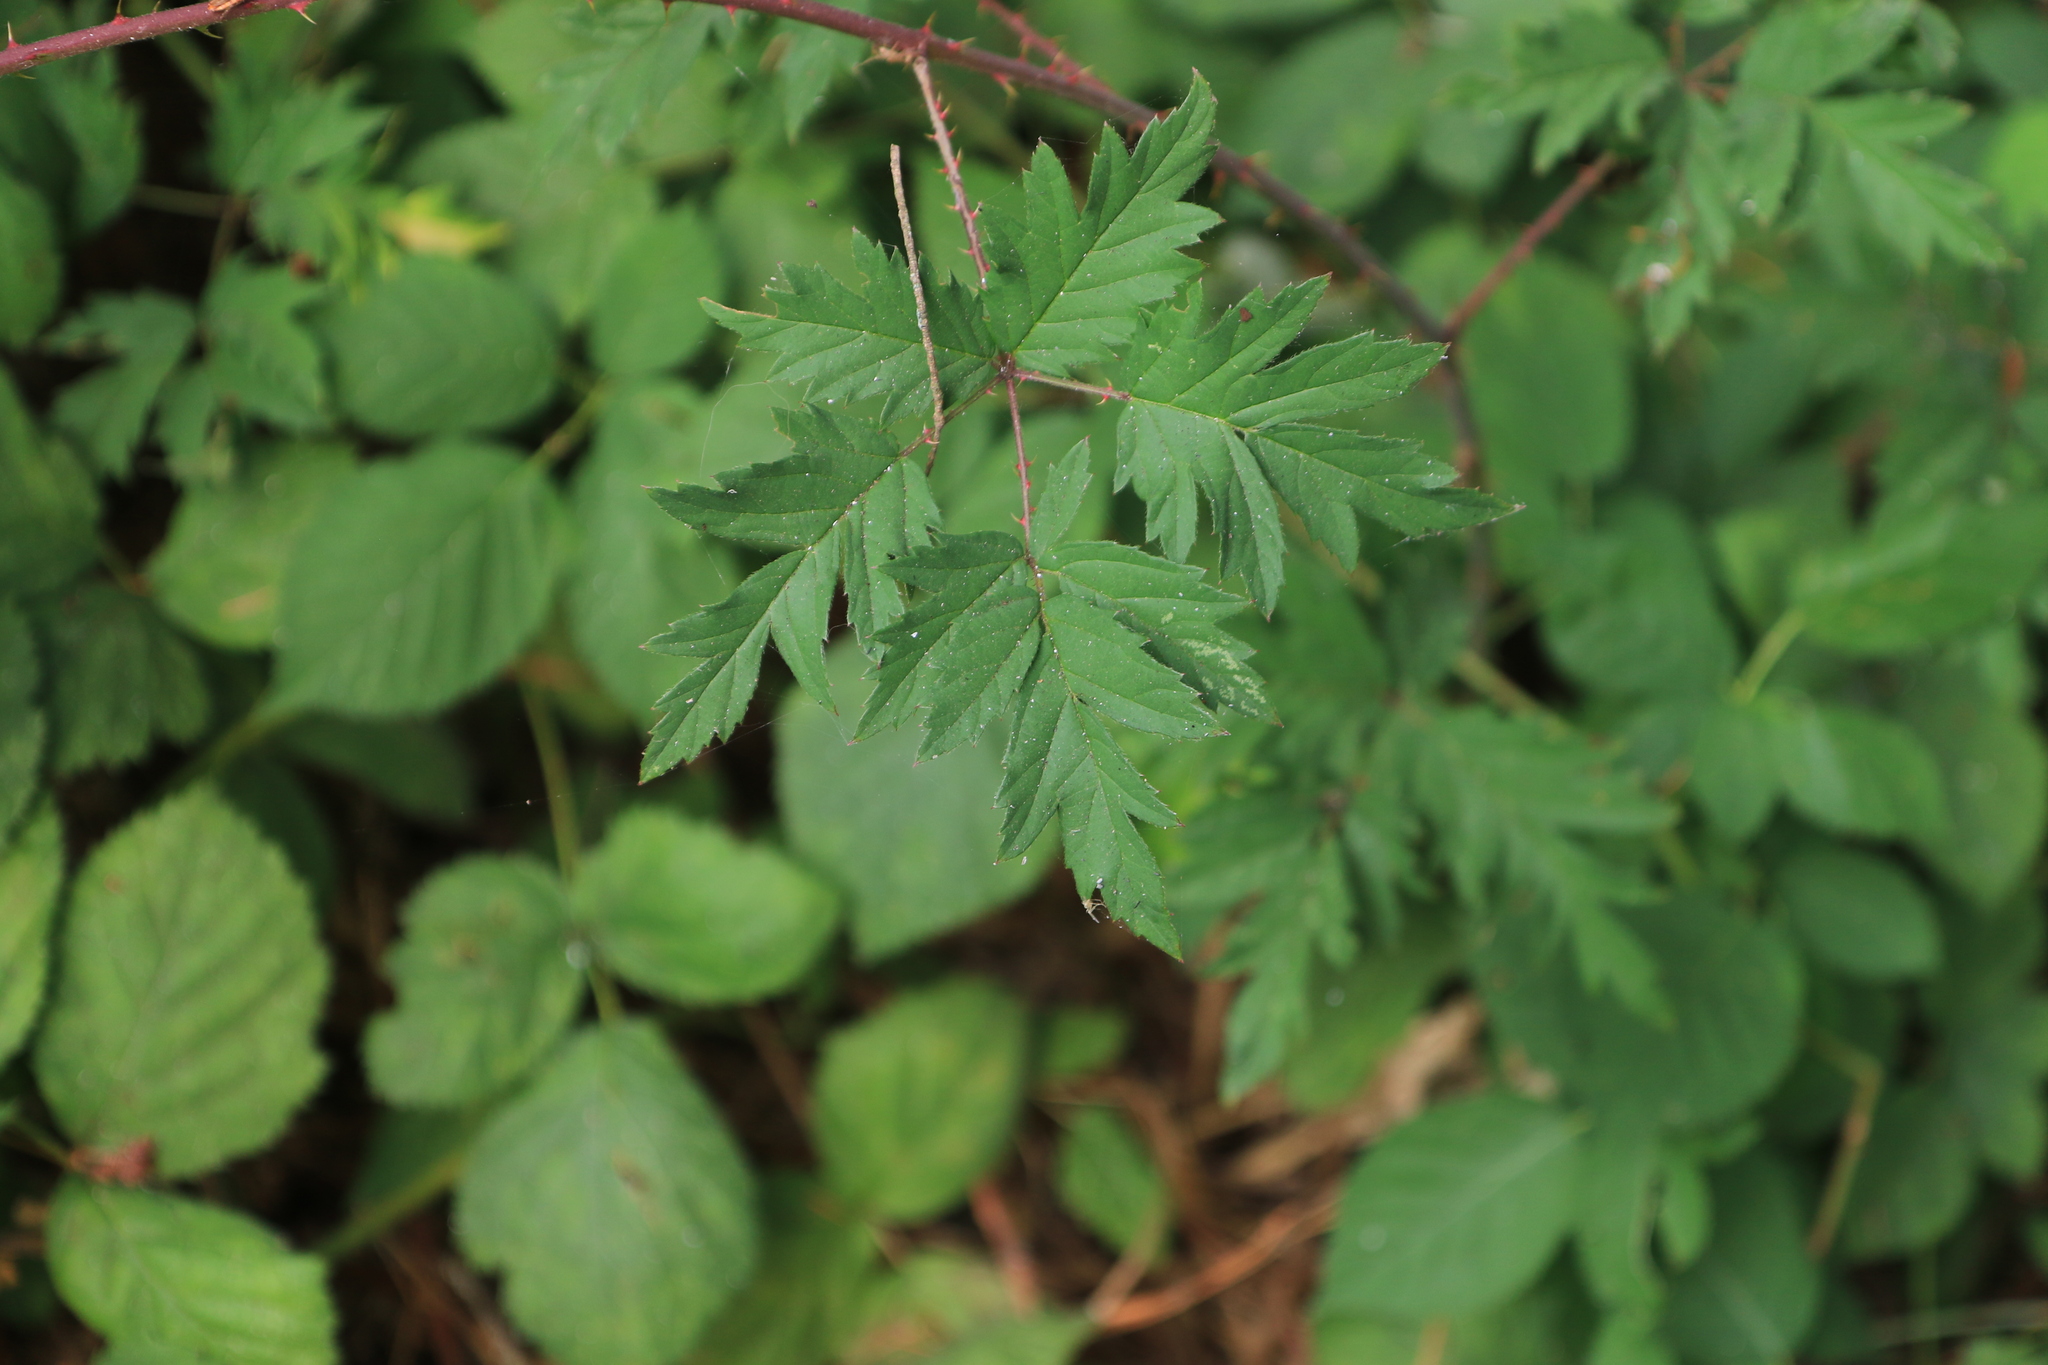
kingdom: Plantae
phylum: Tracheophyta
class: Magnoliopsida
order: Rosales
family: Rosaceae
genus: Rubus
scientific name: Rubus laciniatus
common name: Evergreen blackberry
